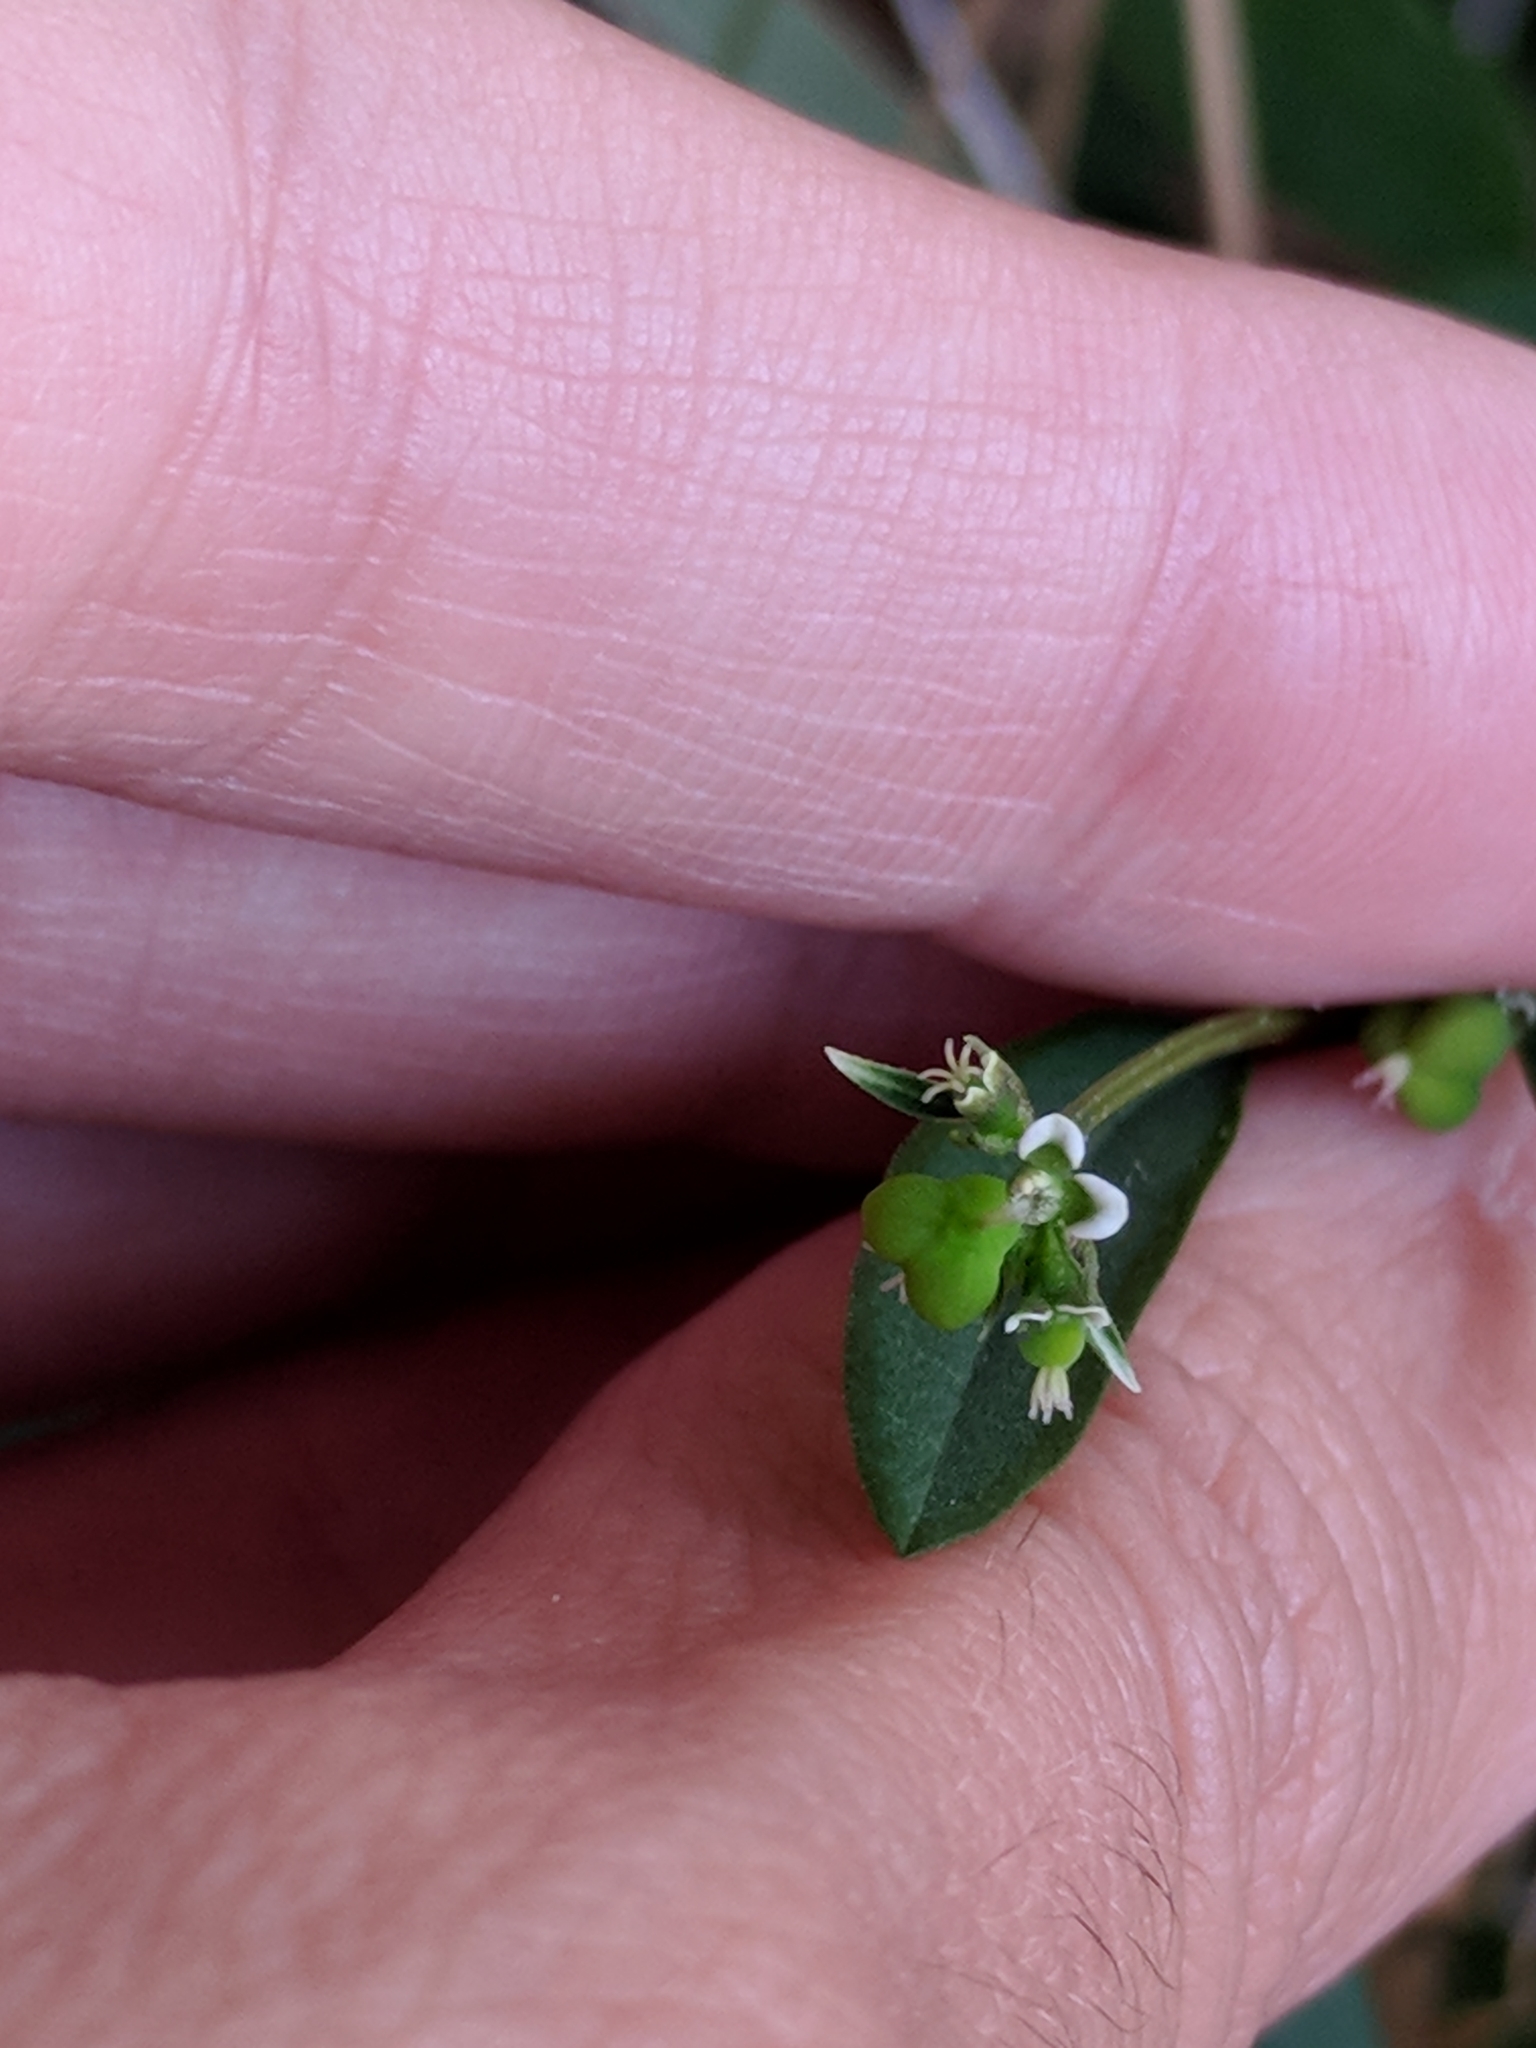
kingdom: Plantae
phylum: Tracheophyta
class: Magnoliopsida
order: Malpighiales
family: Euphorbiaceae
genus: Euphorbia
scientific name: Euphorbia graminea
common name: Grassleaf spurge
